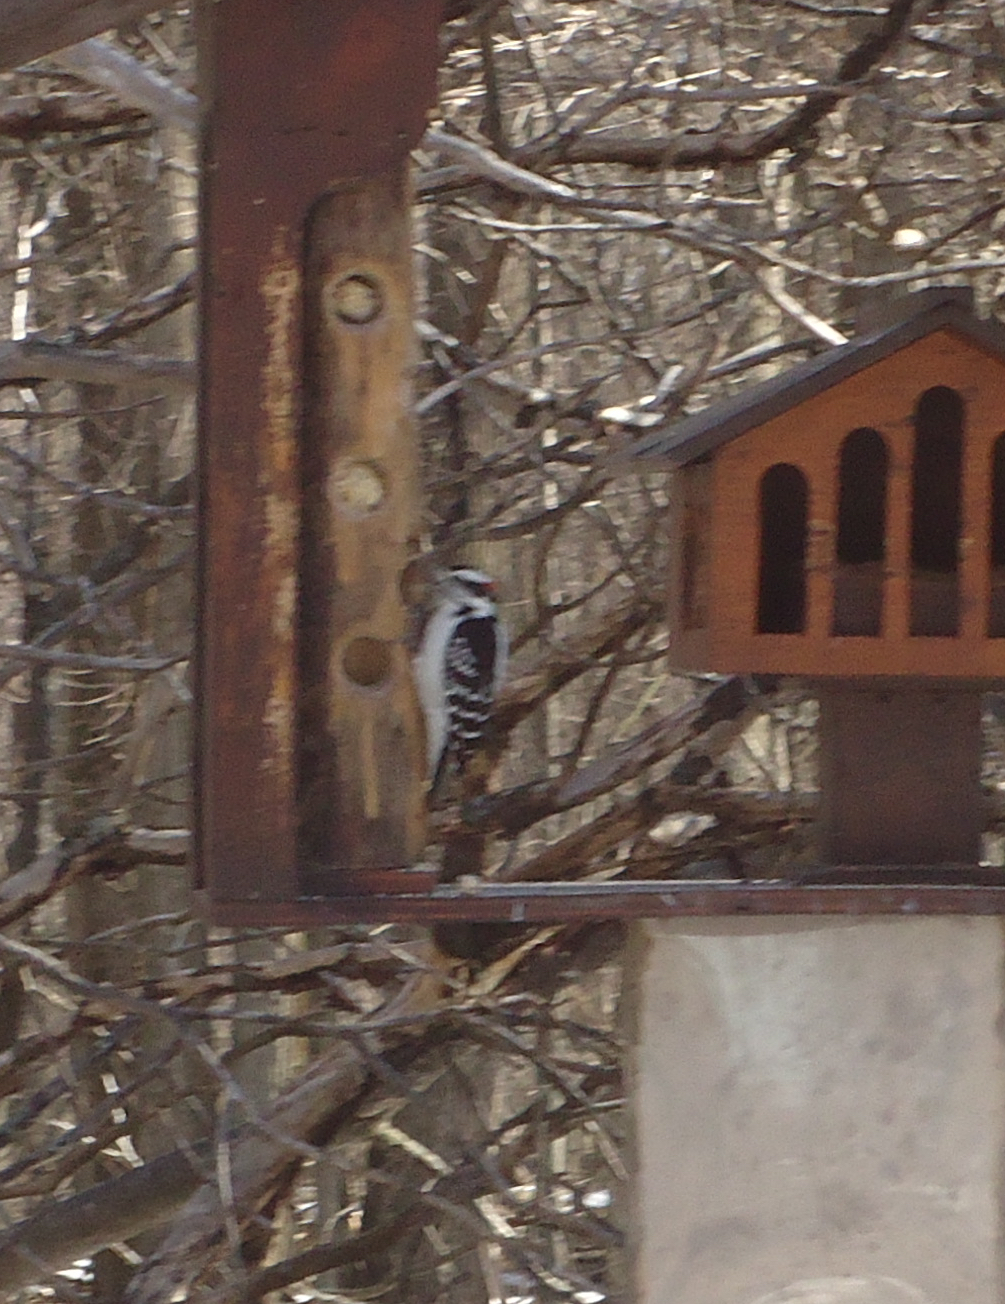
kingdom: Animalia
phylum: Chordata
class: Aves
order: Piciformes
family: Picidae
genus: Dryobates
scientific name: Dryobates pubescens
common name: Downy woodpecker
